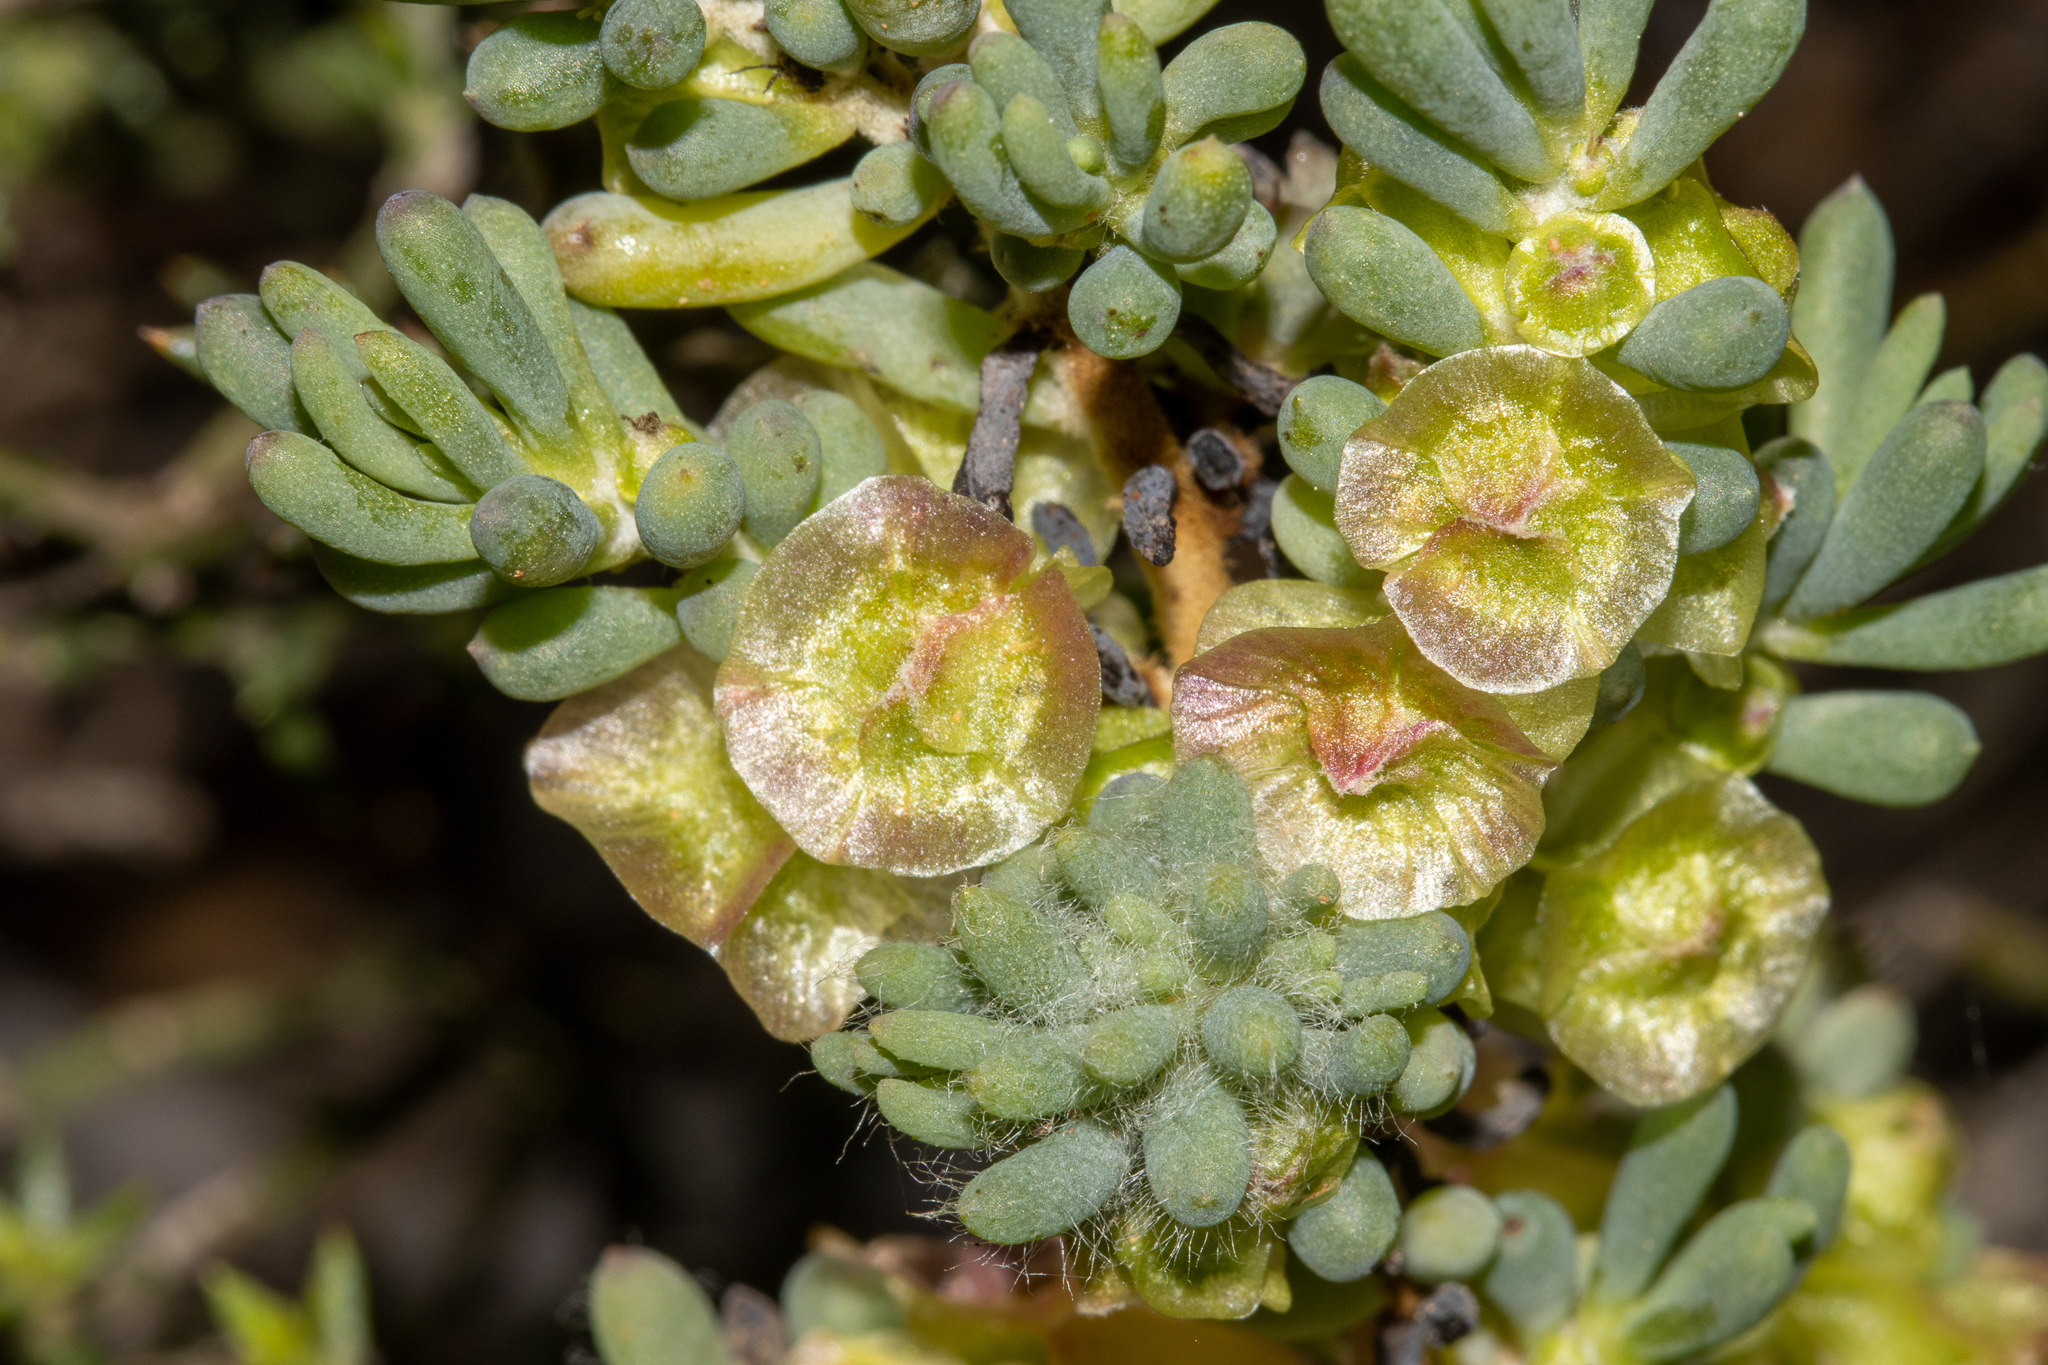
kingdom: Plantae
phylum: Tracheophyta
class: Magnoliopsida
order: Caryophyllales
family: Amaranthaceae
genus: Maireana
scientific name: Maireana erioclada
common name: Rosy bluebush
